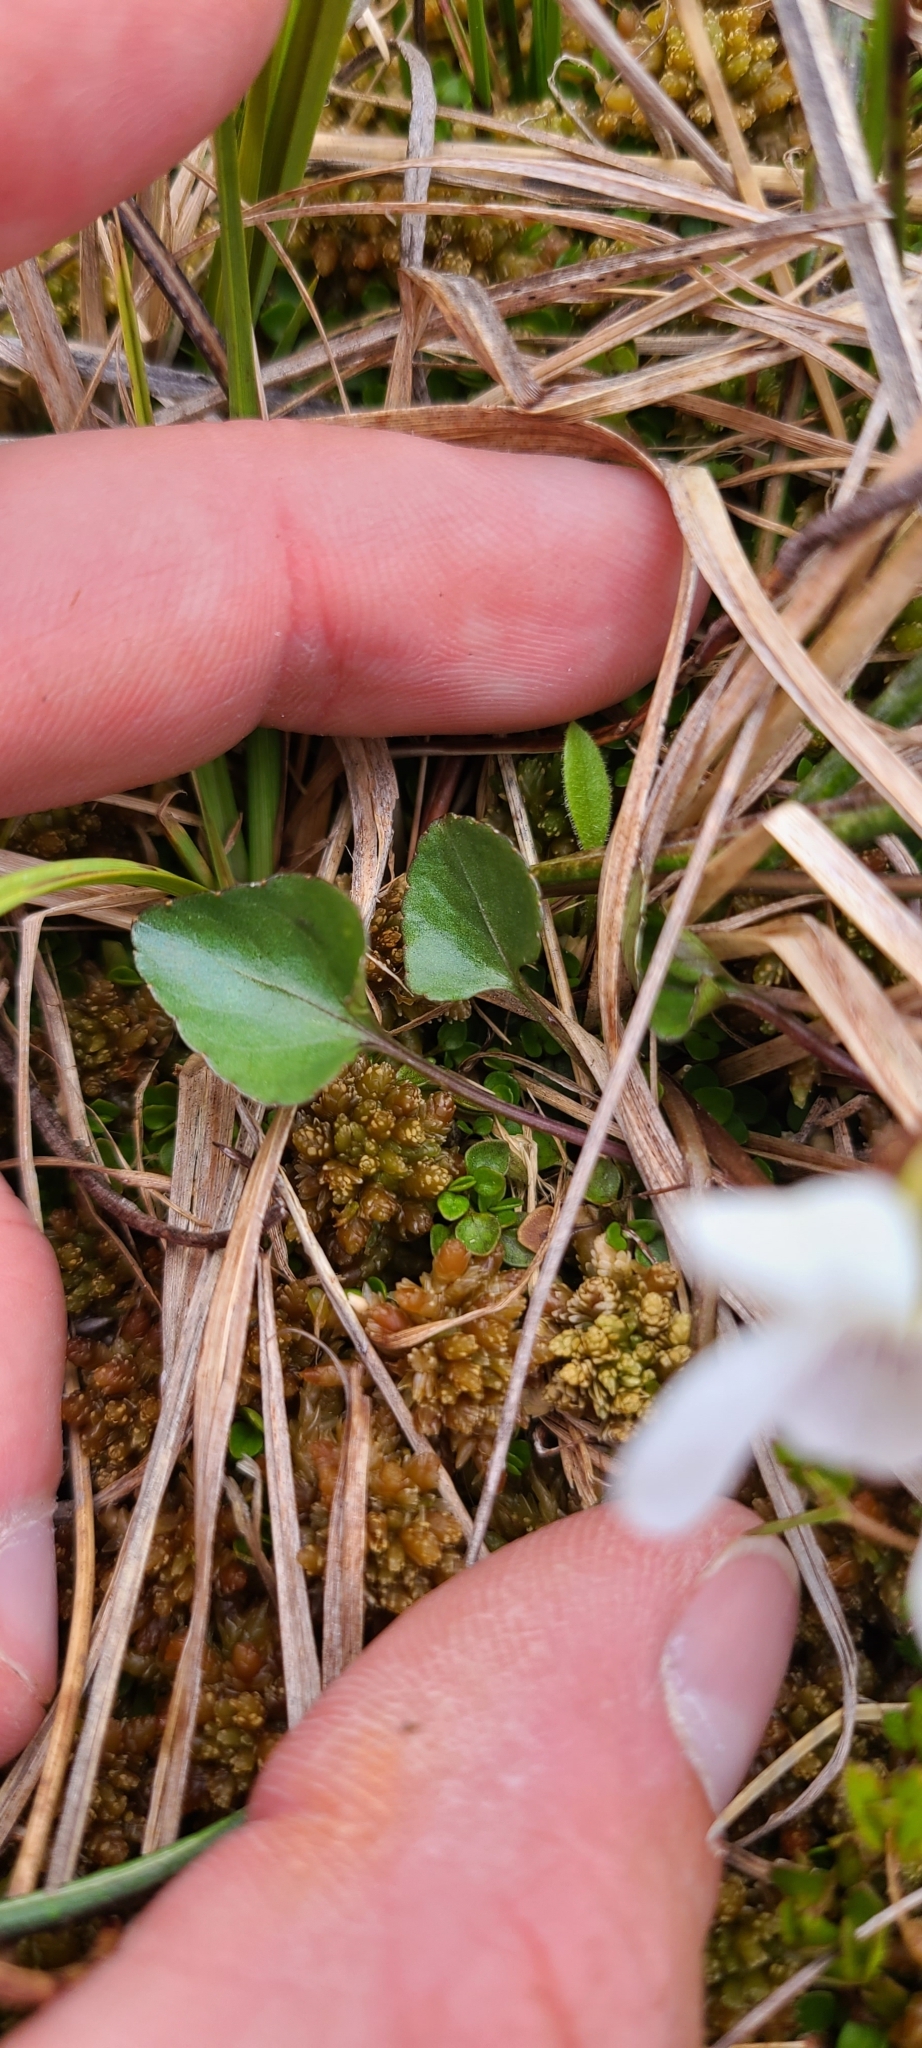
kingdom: Plantae
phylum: Tracheophyta
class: Magnoliopsida
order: Malpighiales
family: Violaceae
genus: Viola
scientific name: Viola cunninghamii
